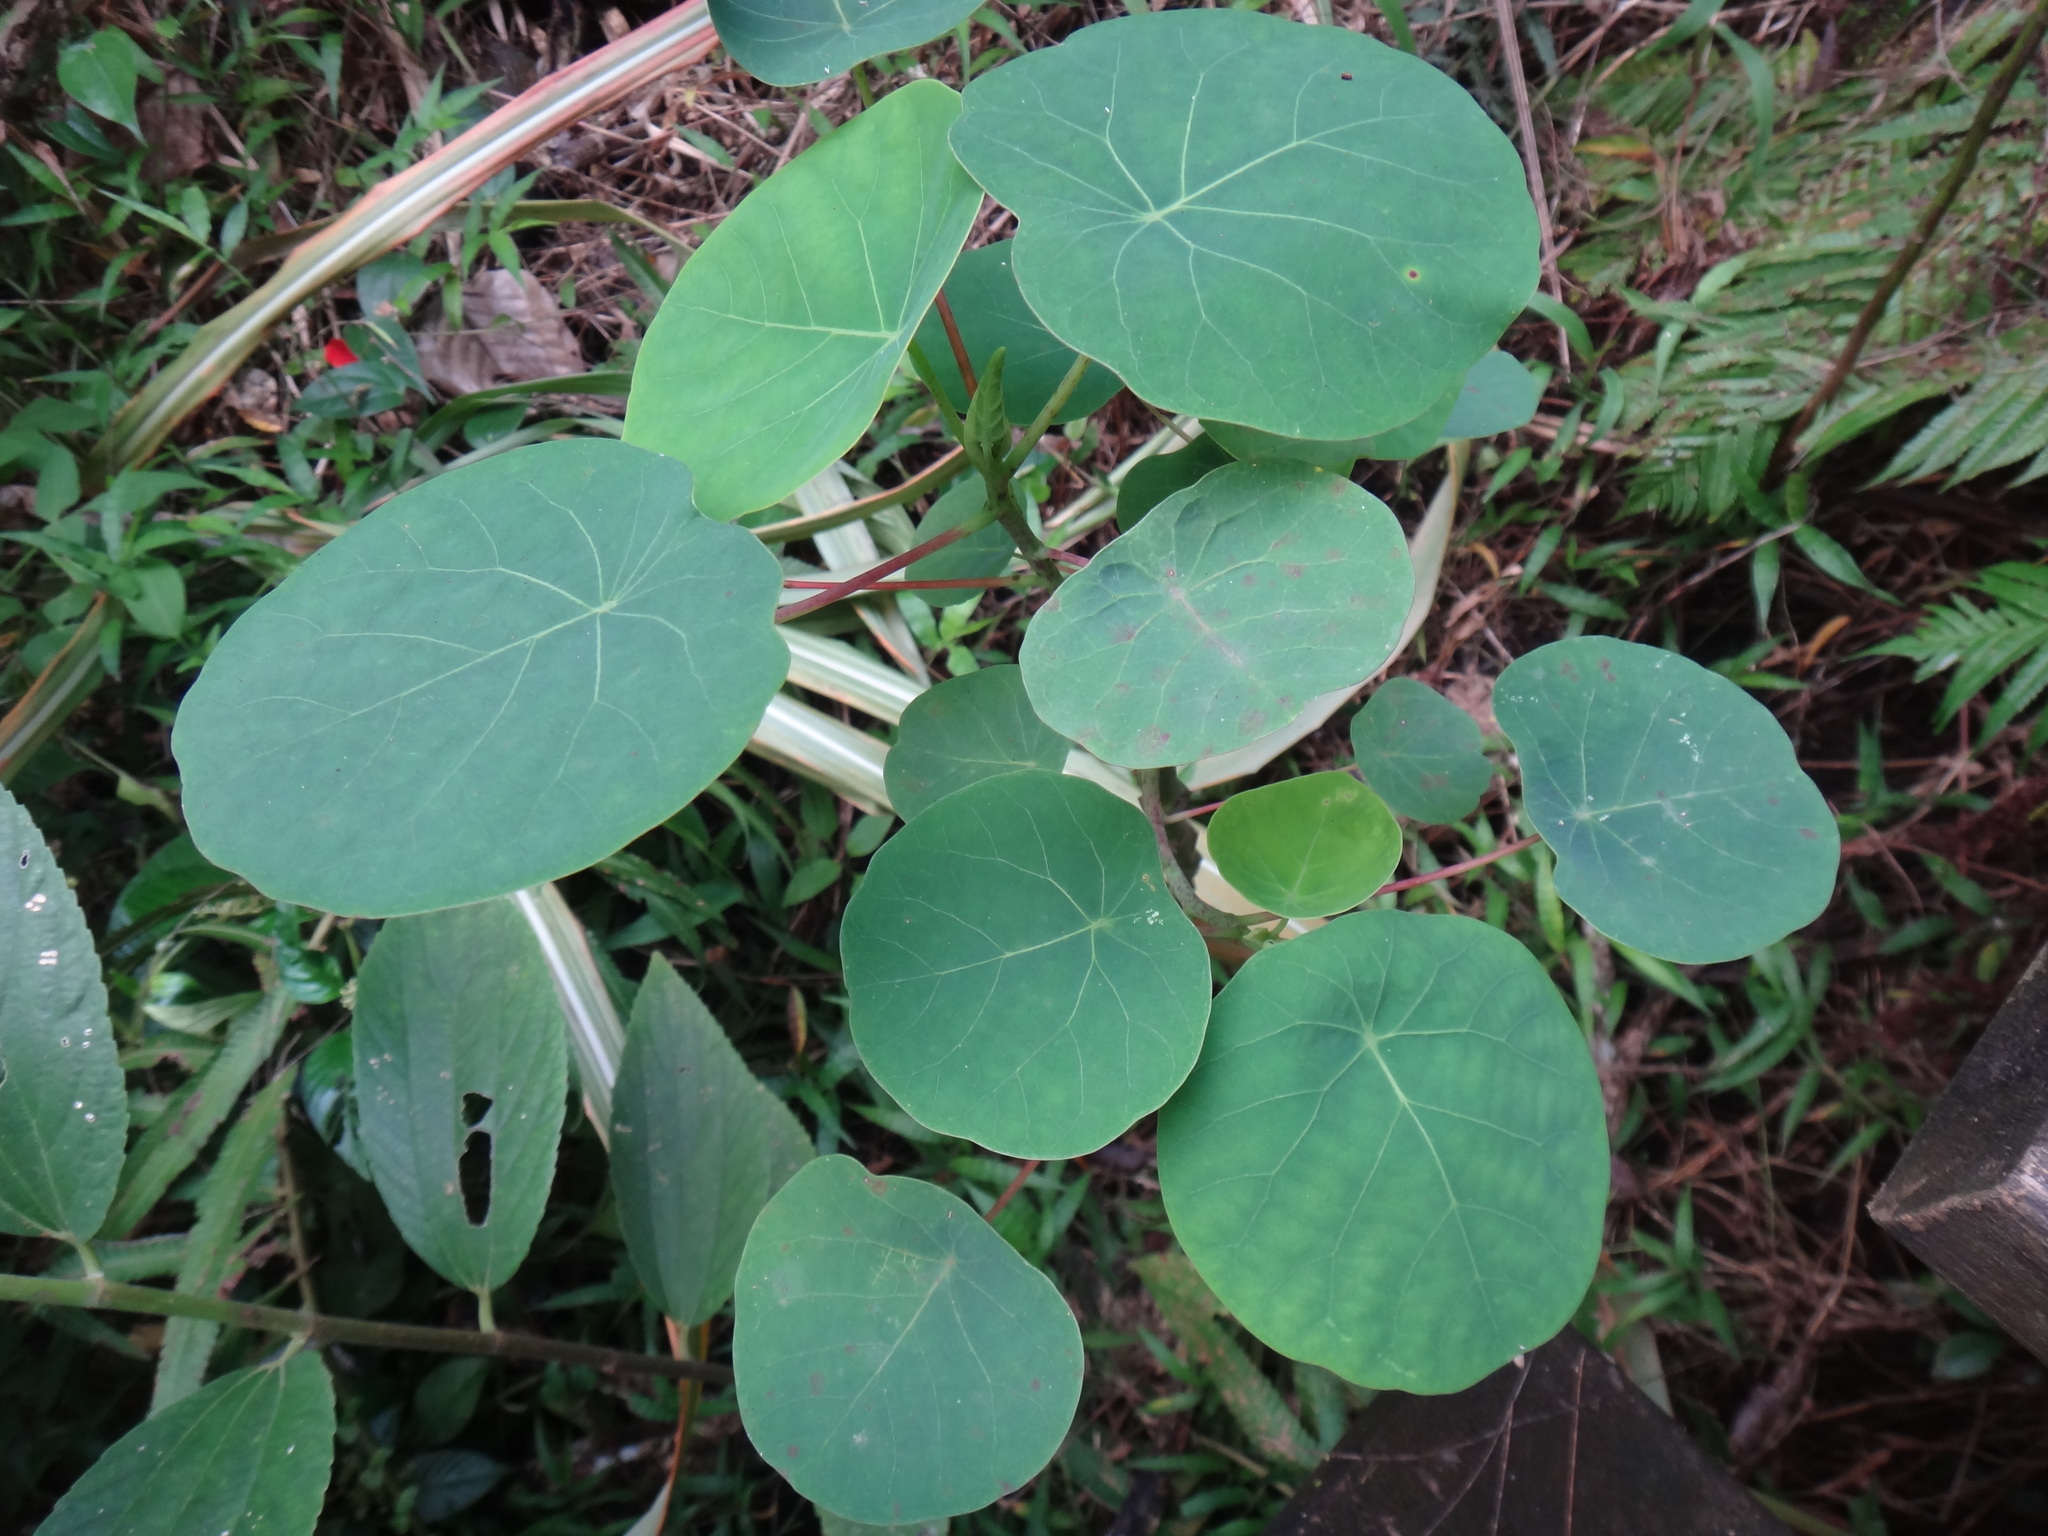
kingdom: Plantae
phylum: Tracheophyta
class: Magnoliopsida
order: Malpighiales
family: Euphorbiaceae
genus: Homalanthus
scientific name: Homalanthus fastuosus
